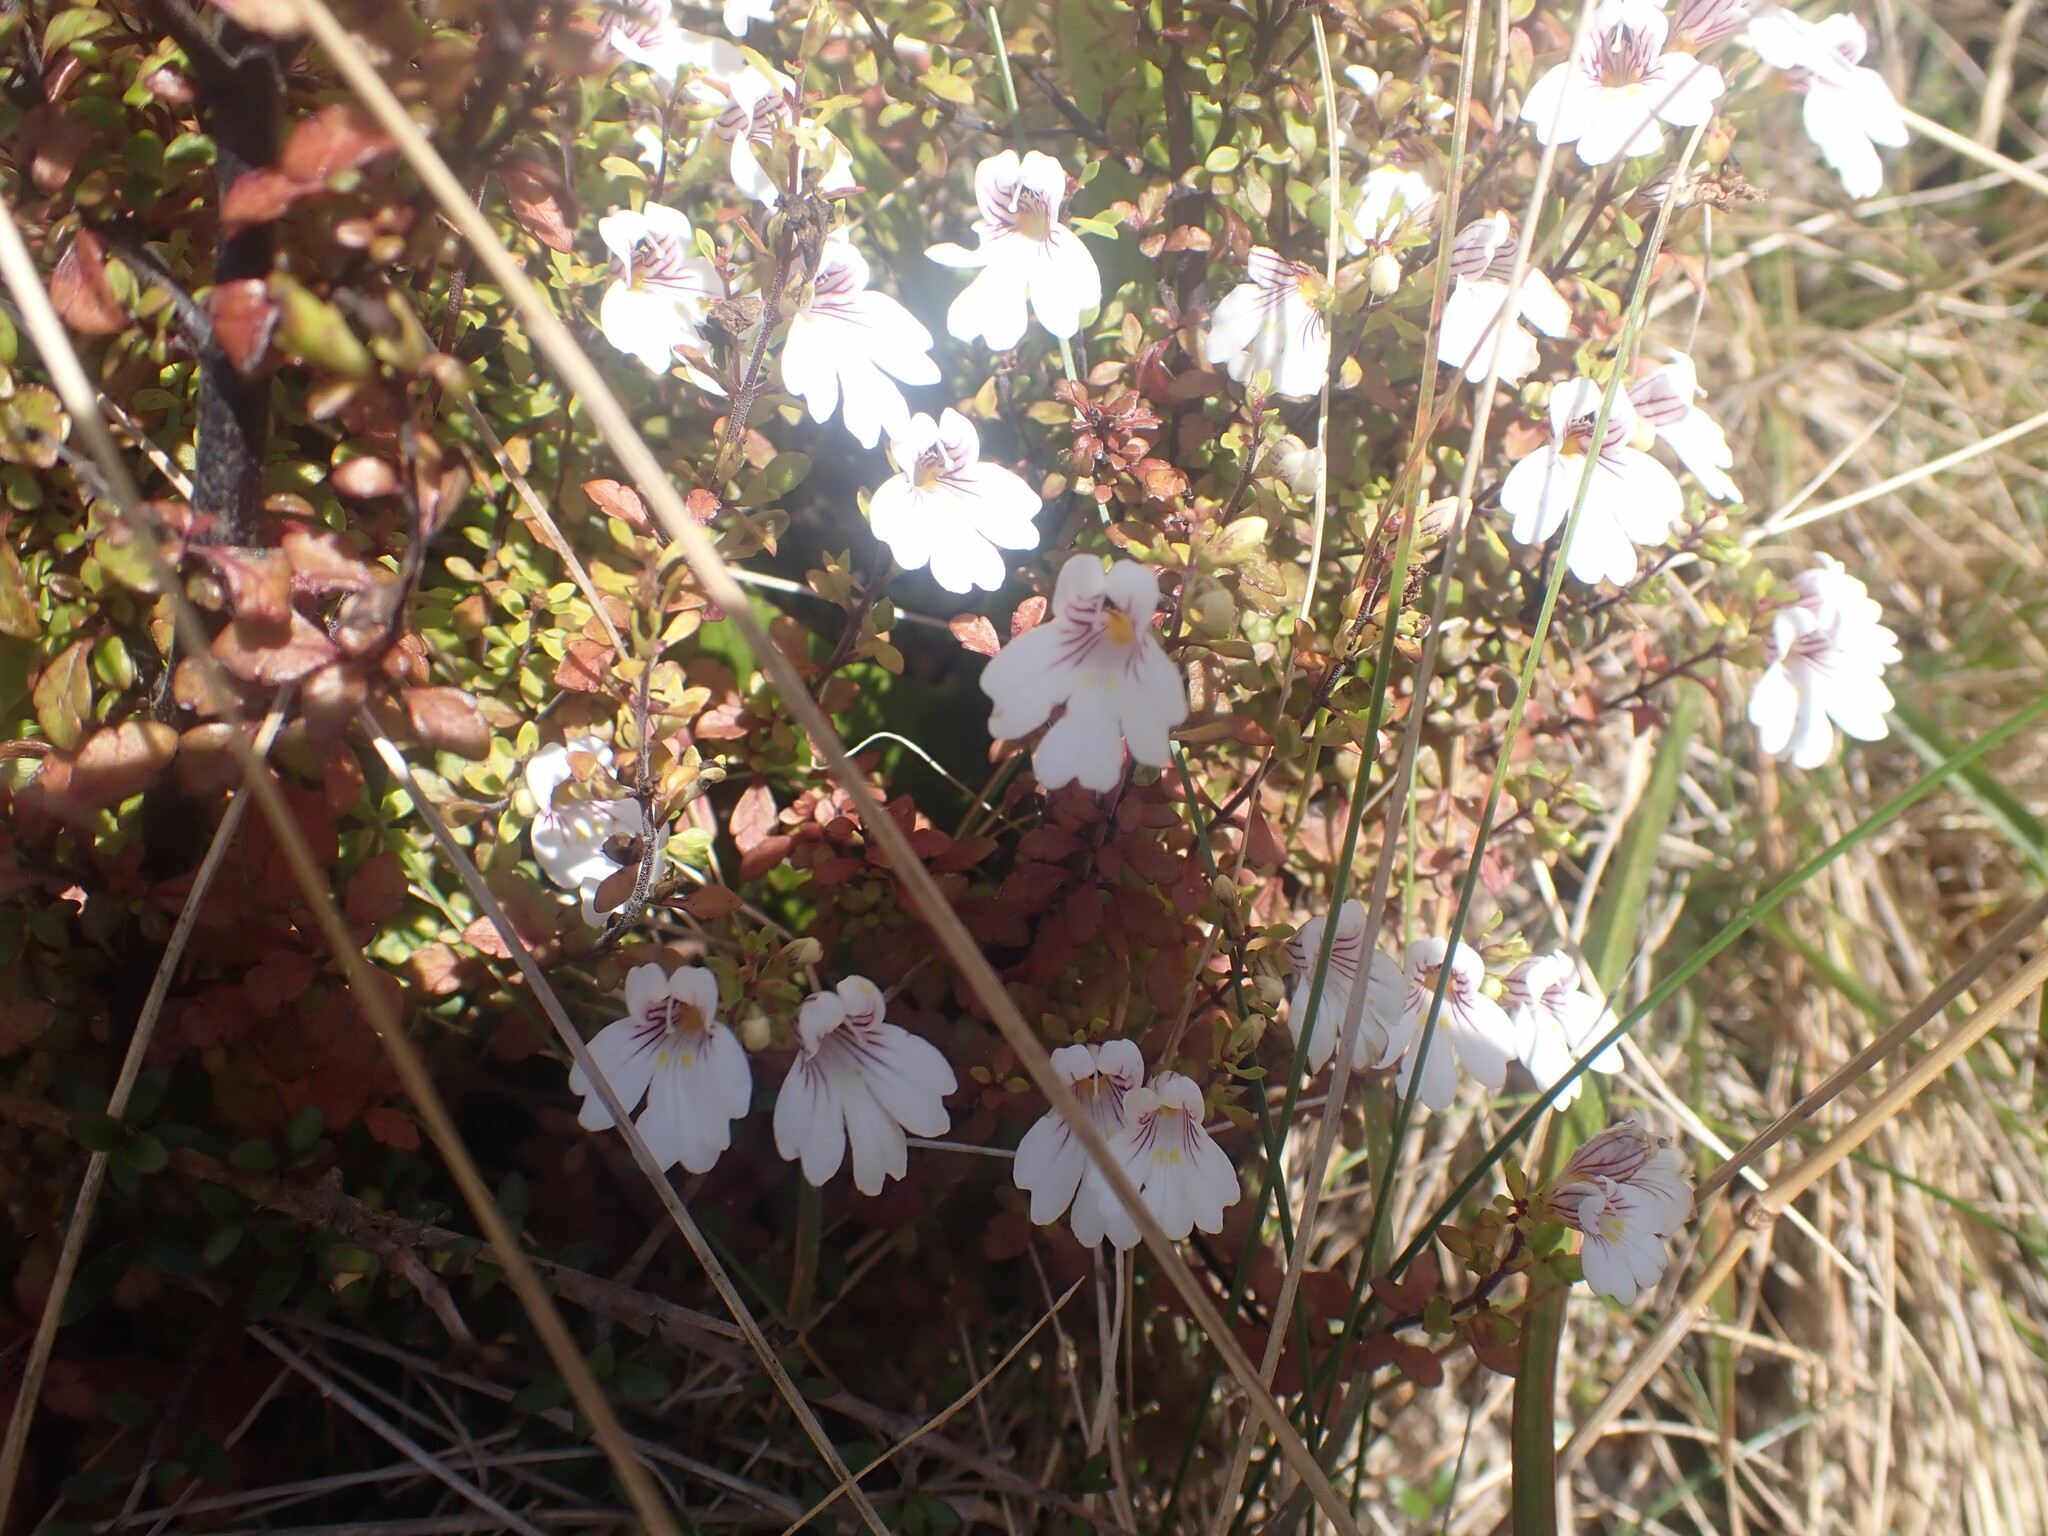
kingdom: Plantae
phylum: Tracheophyta
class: Magnoliopsida
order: Lamiales
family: Orobanchaceae
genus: Euphrasia
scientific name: Euphrasia cuneata
